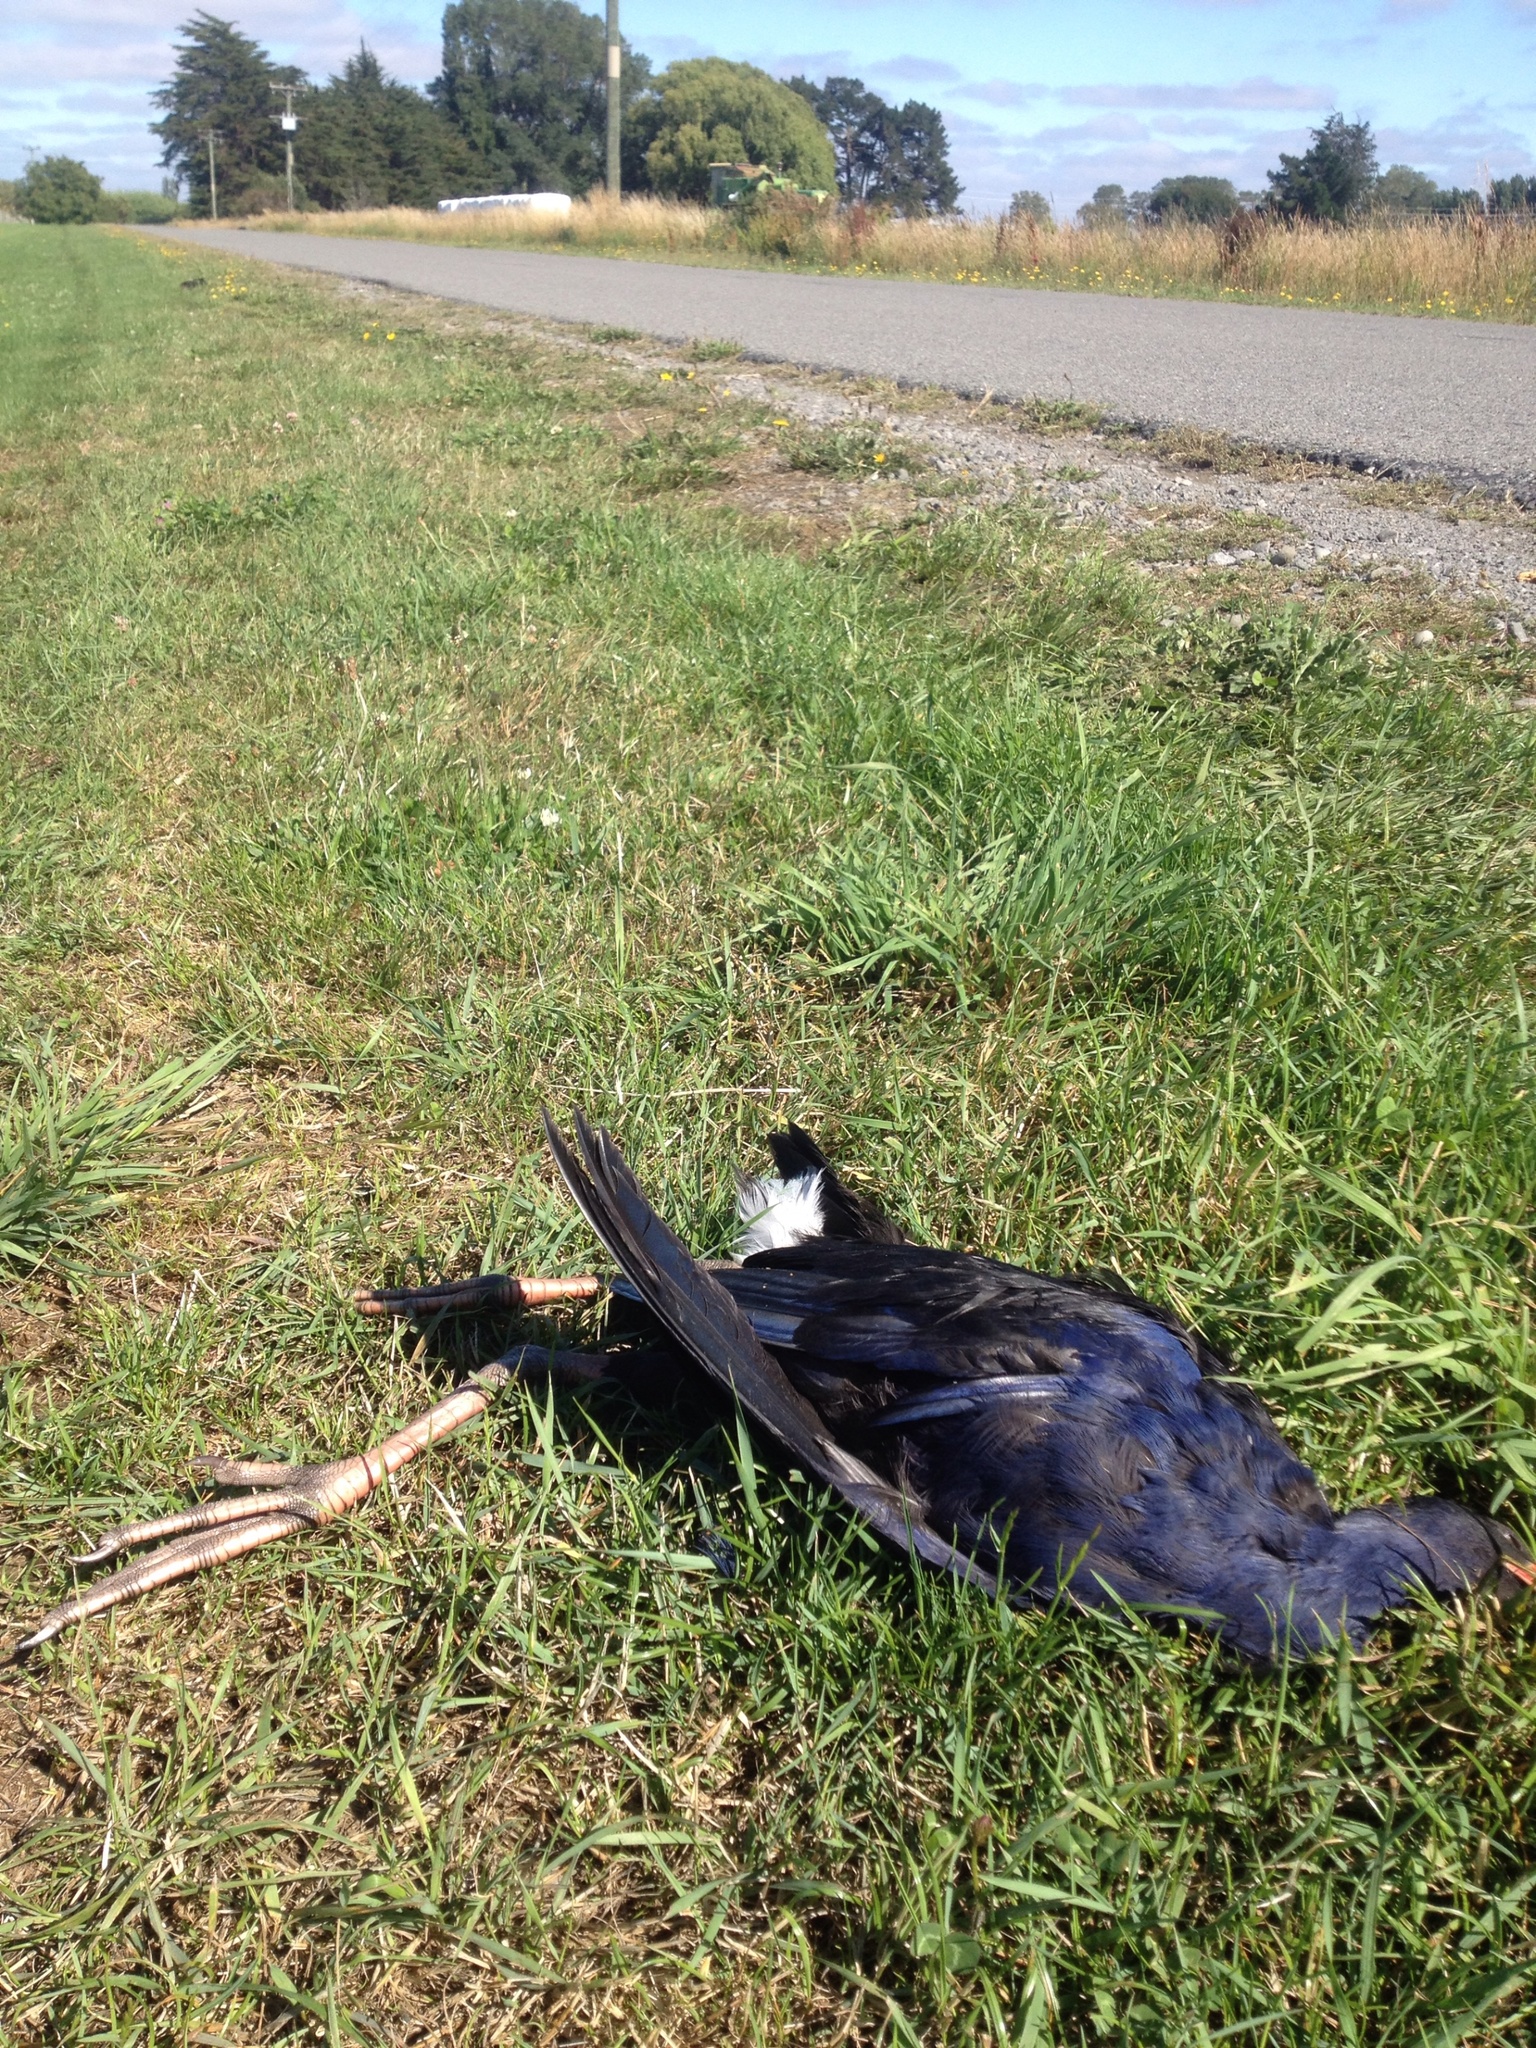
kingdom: Animalia
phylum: Chordata
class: Aves
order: Gruiformes
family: Rallidae
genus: Porphyrio
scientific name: Porphyrio melanotus
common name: Australasian swamphen
